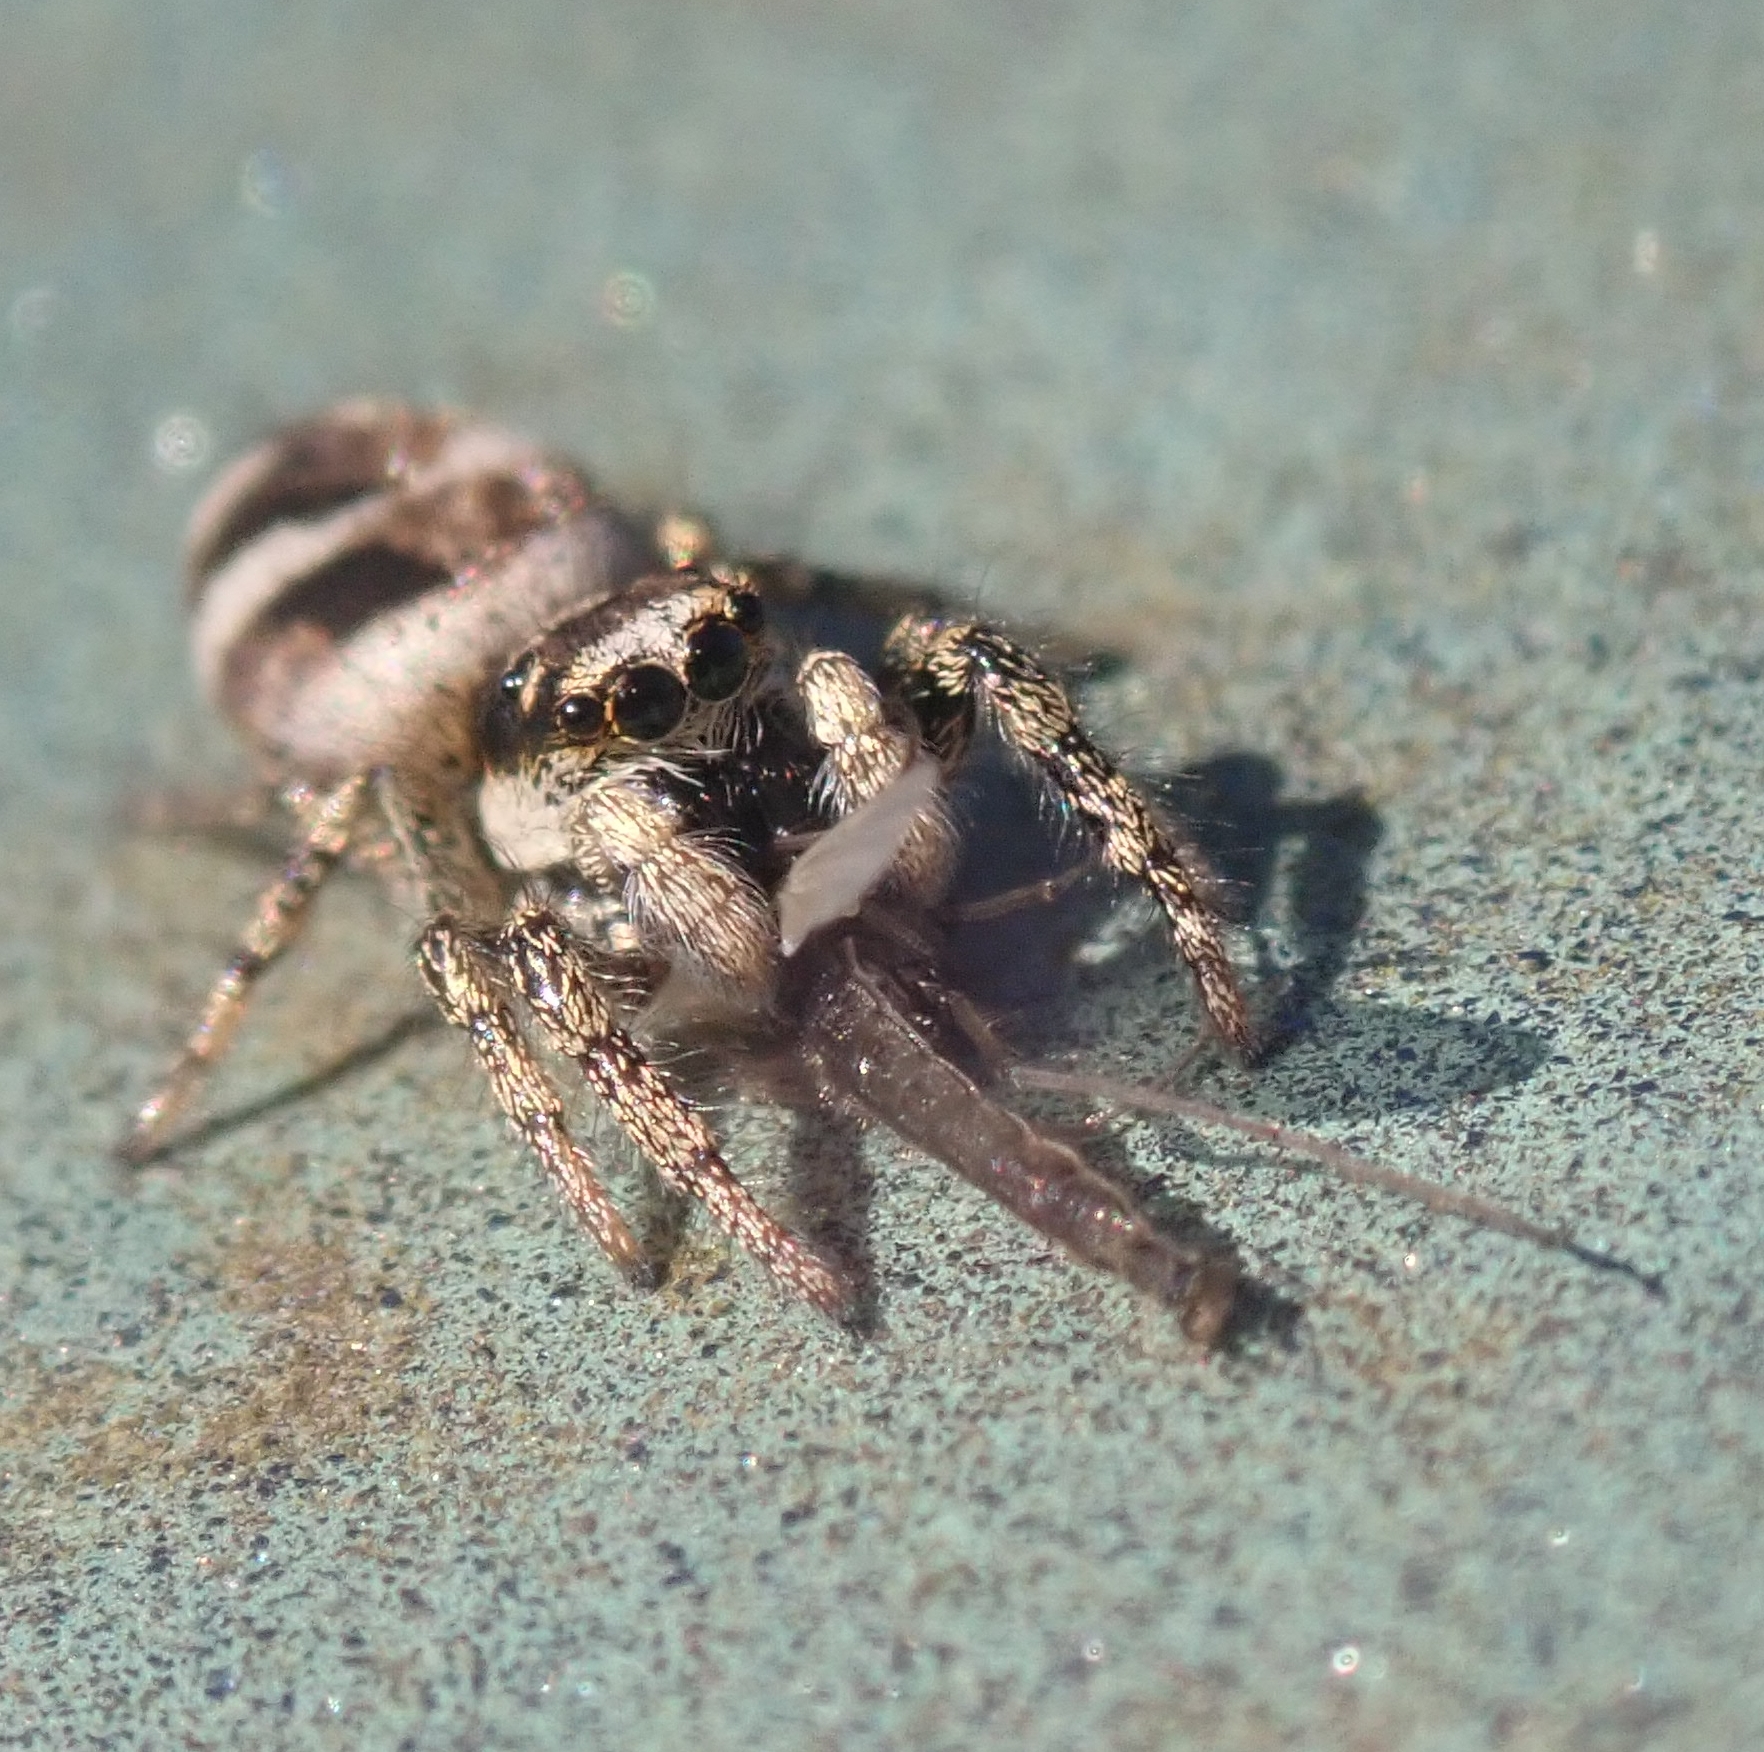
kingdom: Animalia
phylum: Arthropoda
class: Arachnida
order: Araneae
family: Salticidae
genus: Salticus
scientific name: Salticus scenicus
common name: Zebra jumper
